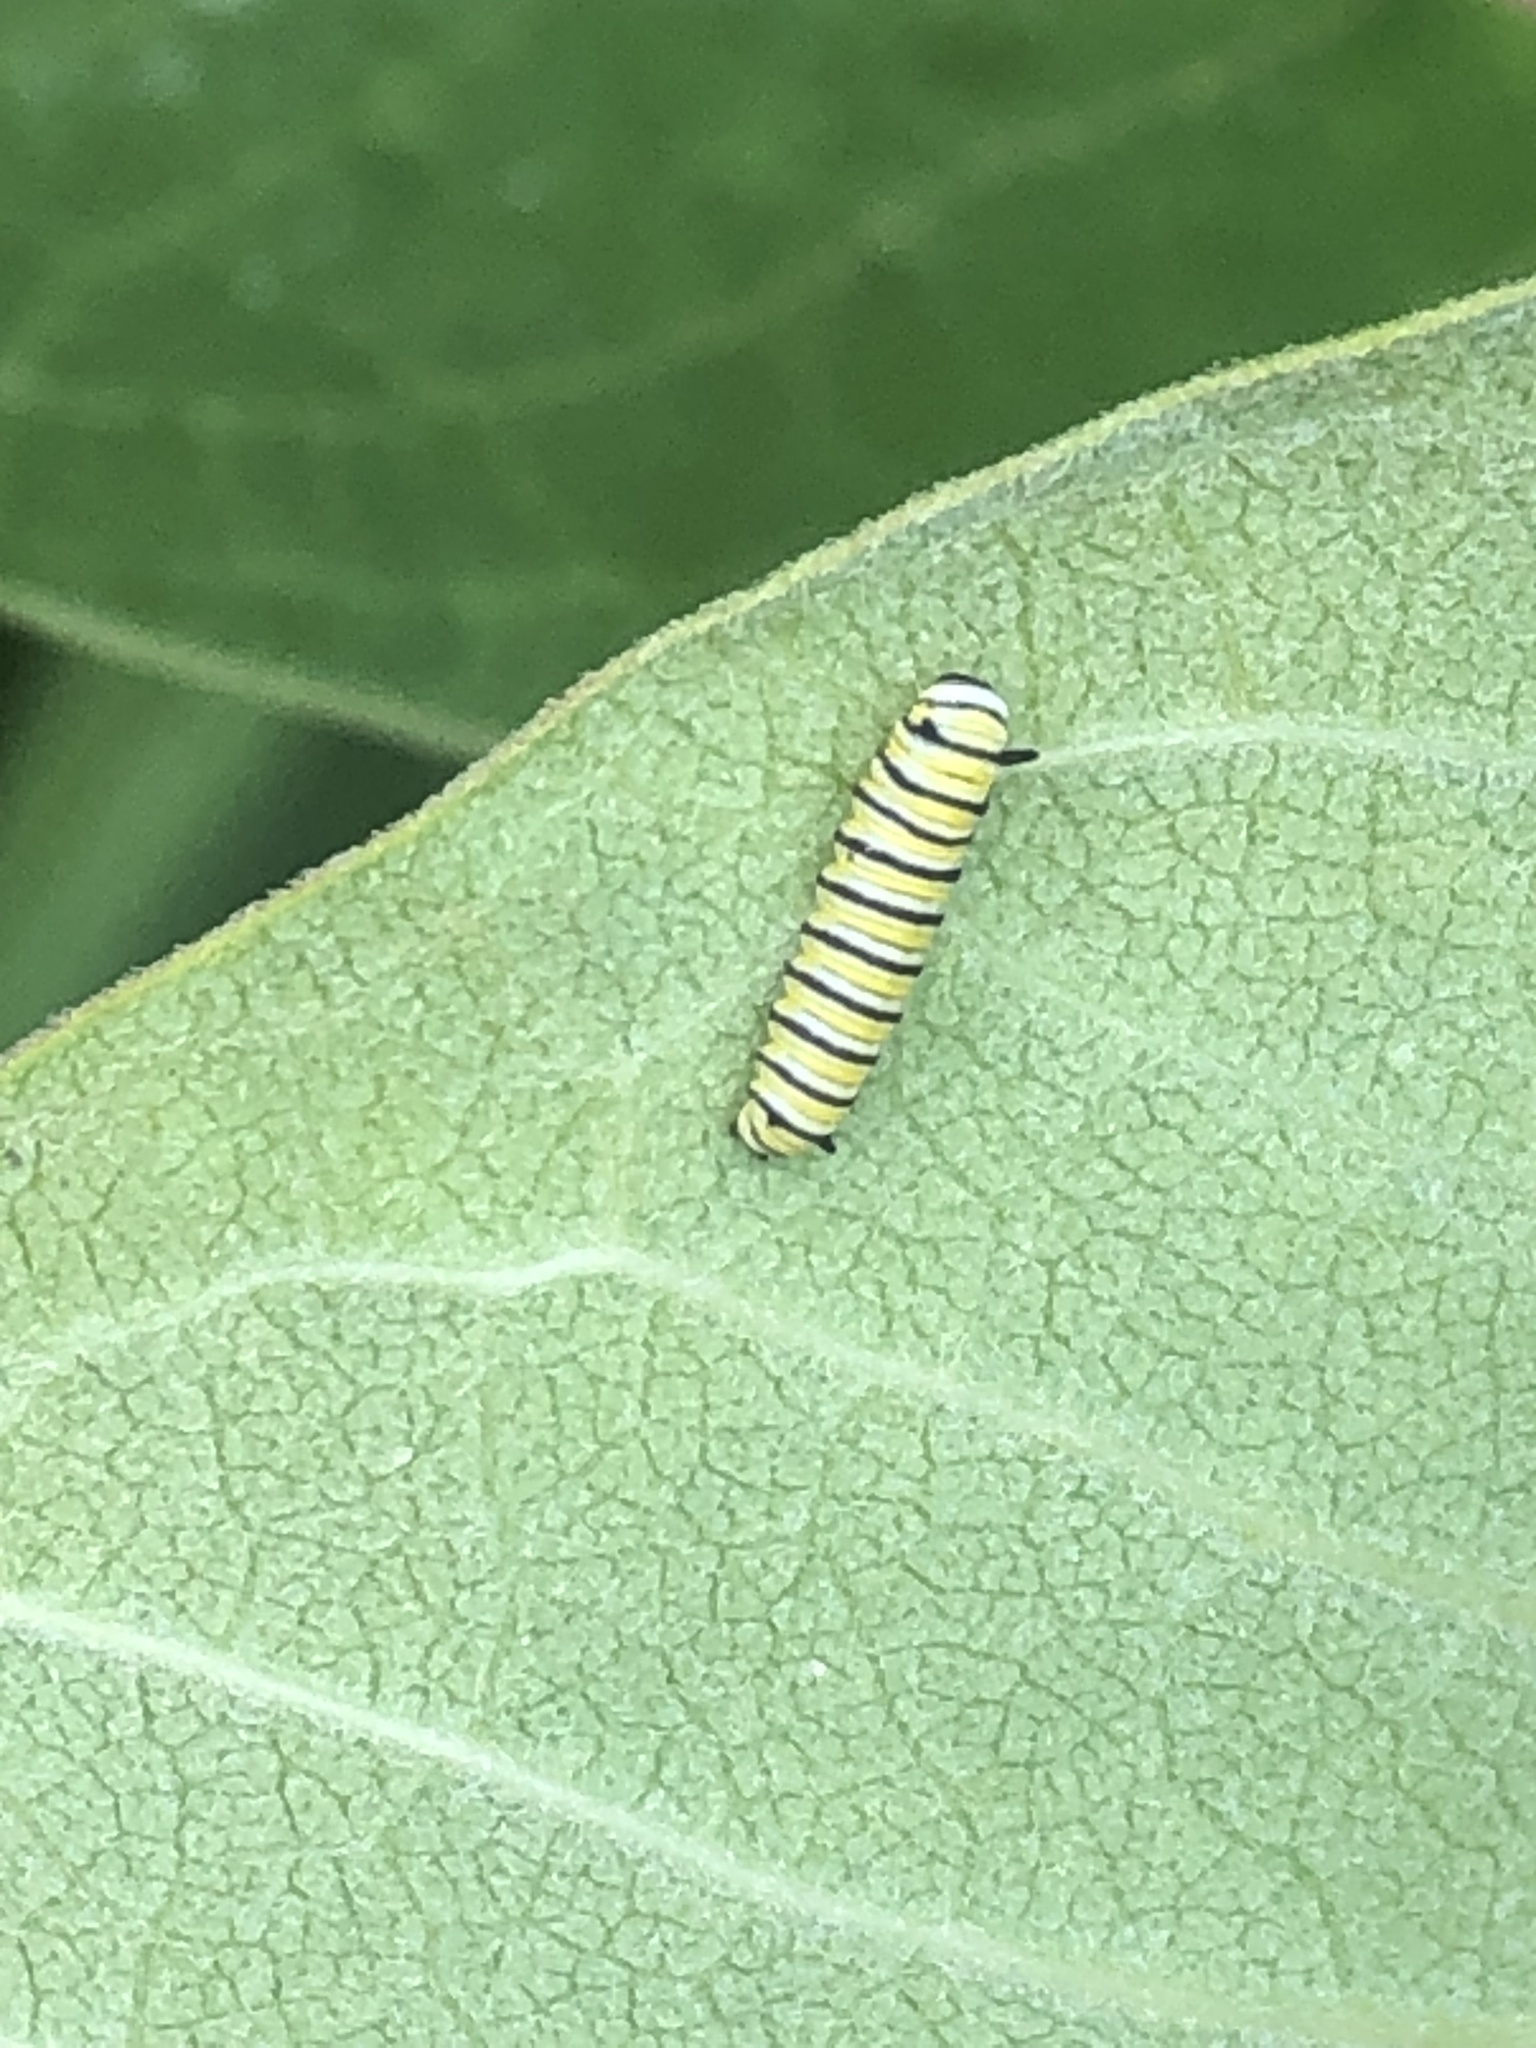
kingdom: Animalia
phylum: Arthropoda
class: Insecta
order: Lepidoptera
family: Nymphalidae
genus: Danaus
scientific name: Danaus plexippus
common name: Monarch
